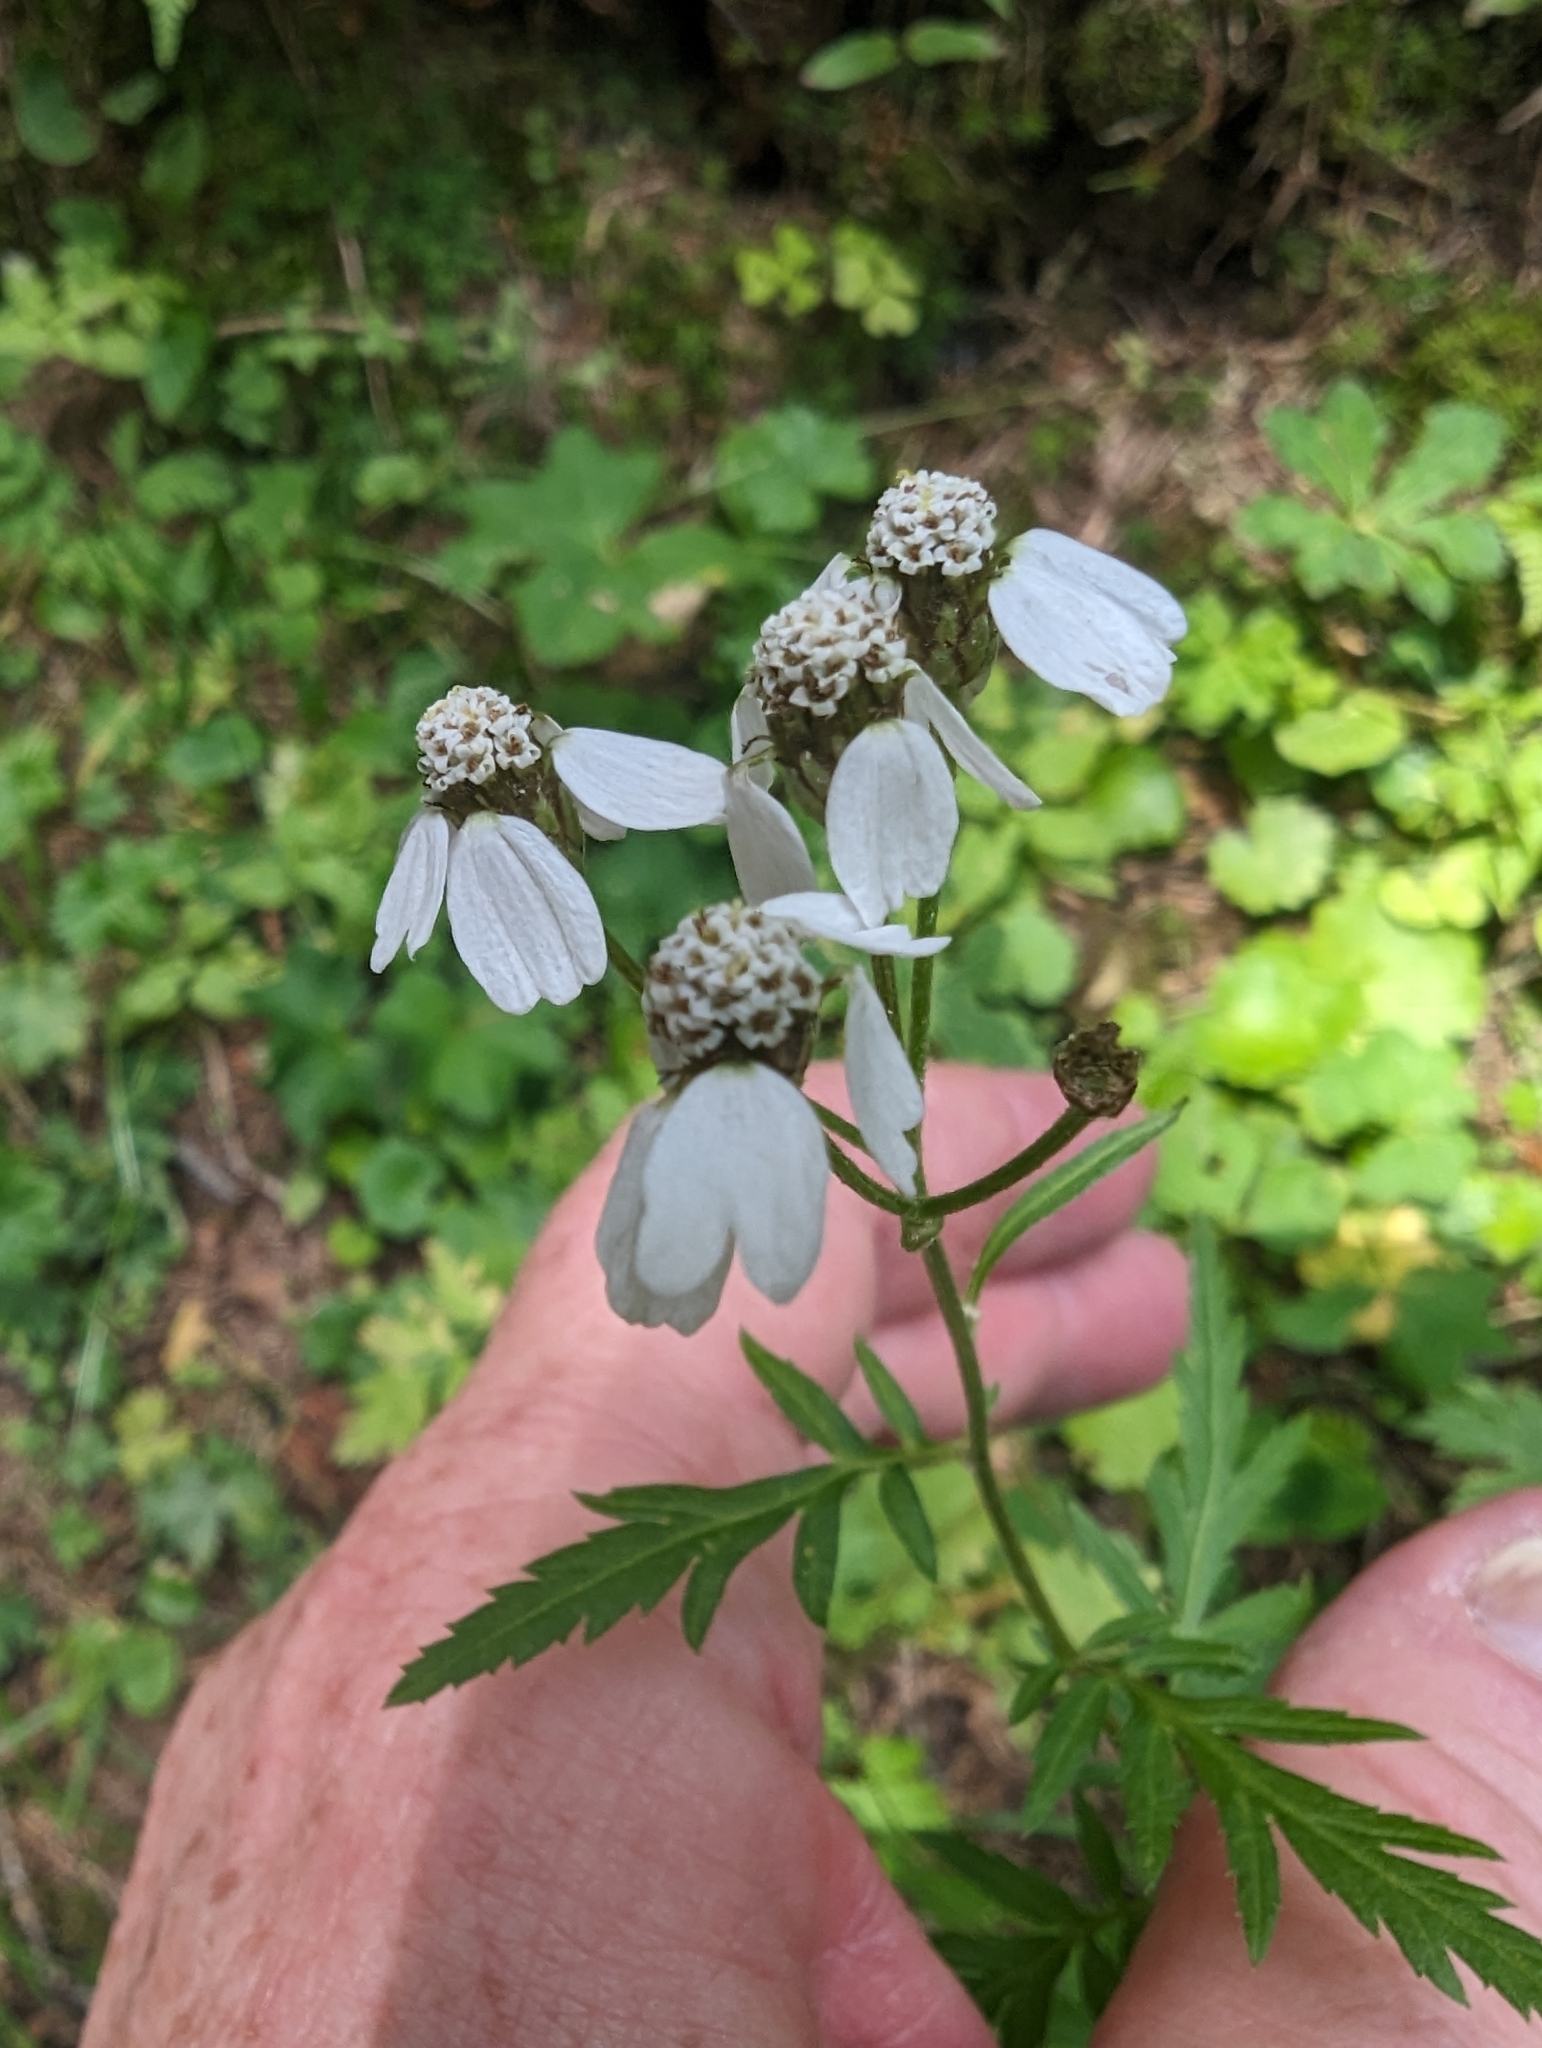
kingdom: Plantae
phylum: Tracheophyta
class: Magnoliopsida
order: Asterales
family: Asteraceae
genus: Achillea
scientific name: Achillea macrophylla
